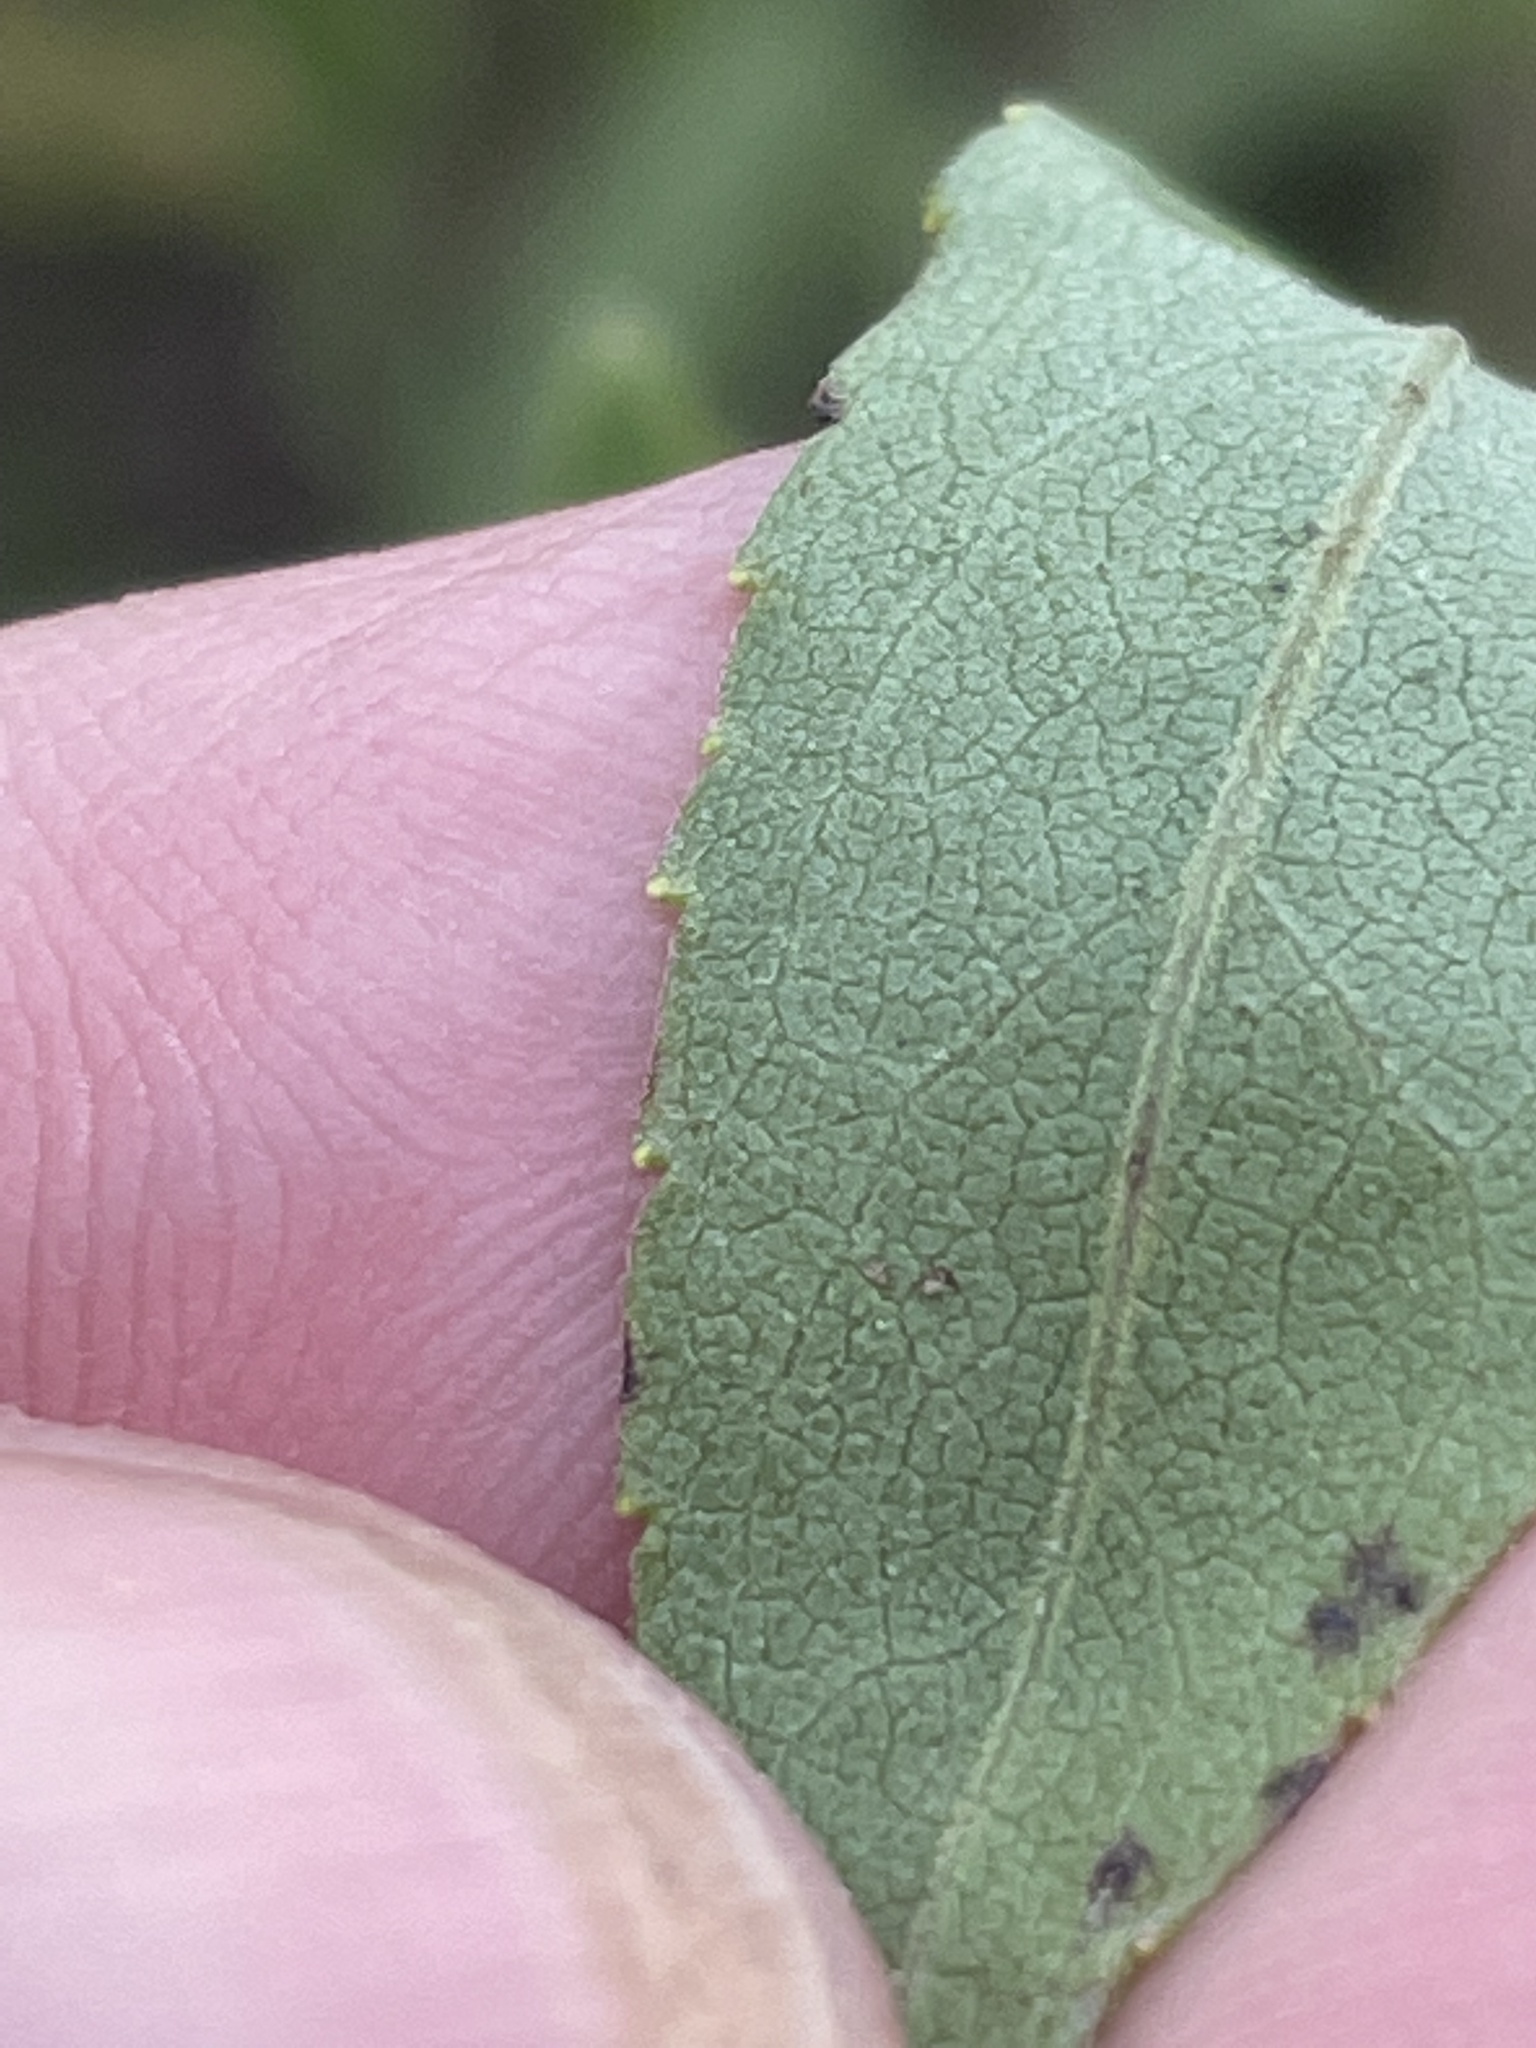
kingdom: Plantae
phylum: Tracheophyta
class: Magnoliopsida
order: Asterales
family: Asteraceae
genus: Solidago
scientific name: Solidago nemoralis
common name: Grey goldenrod
